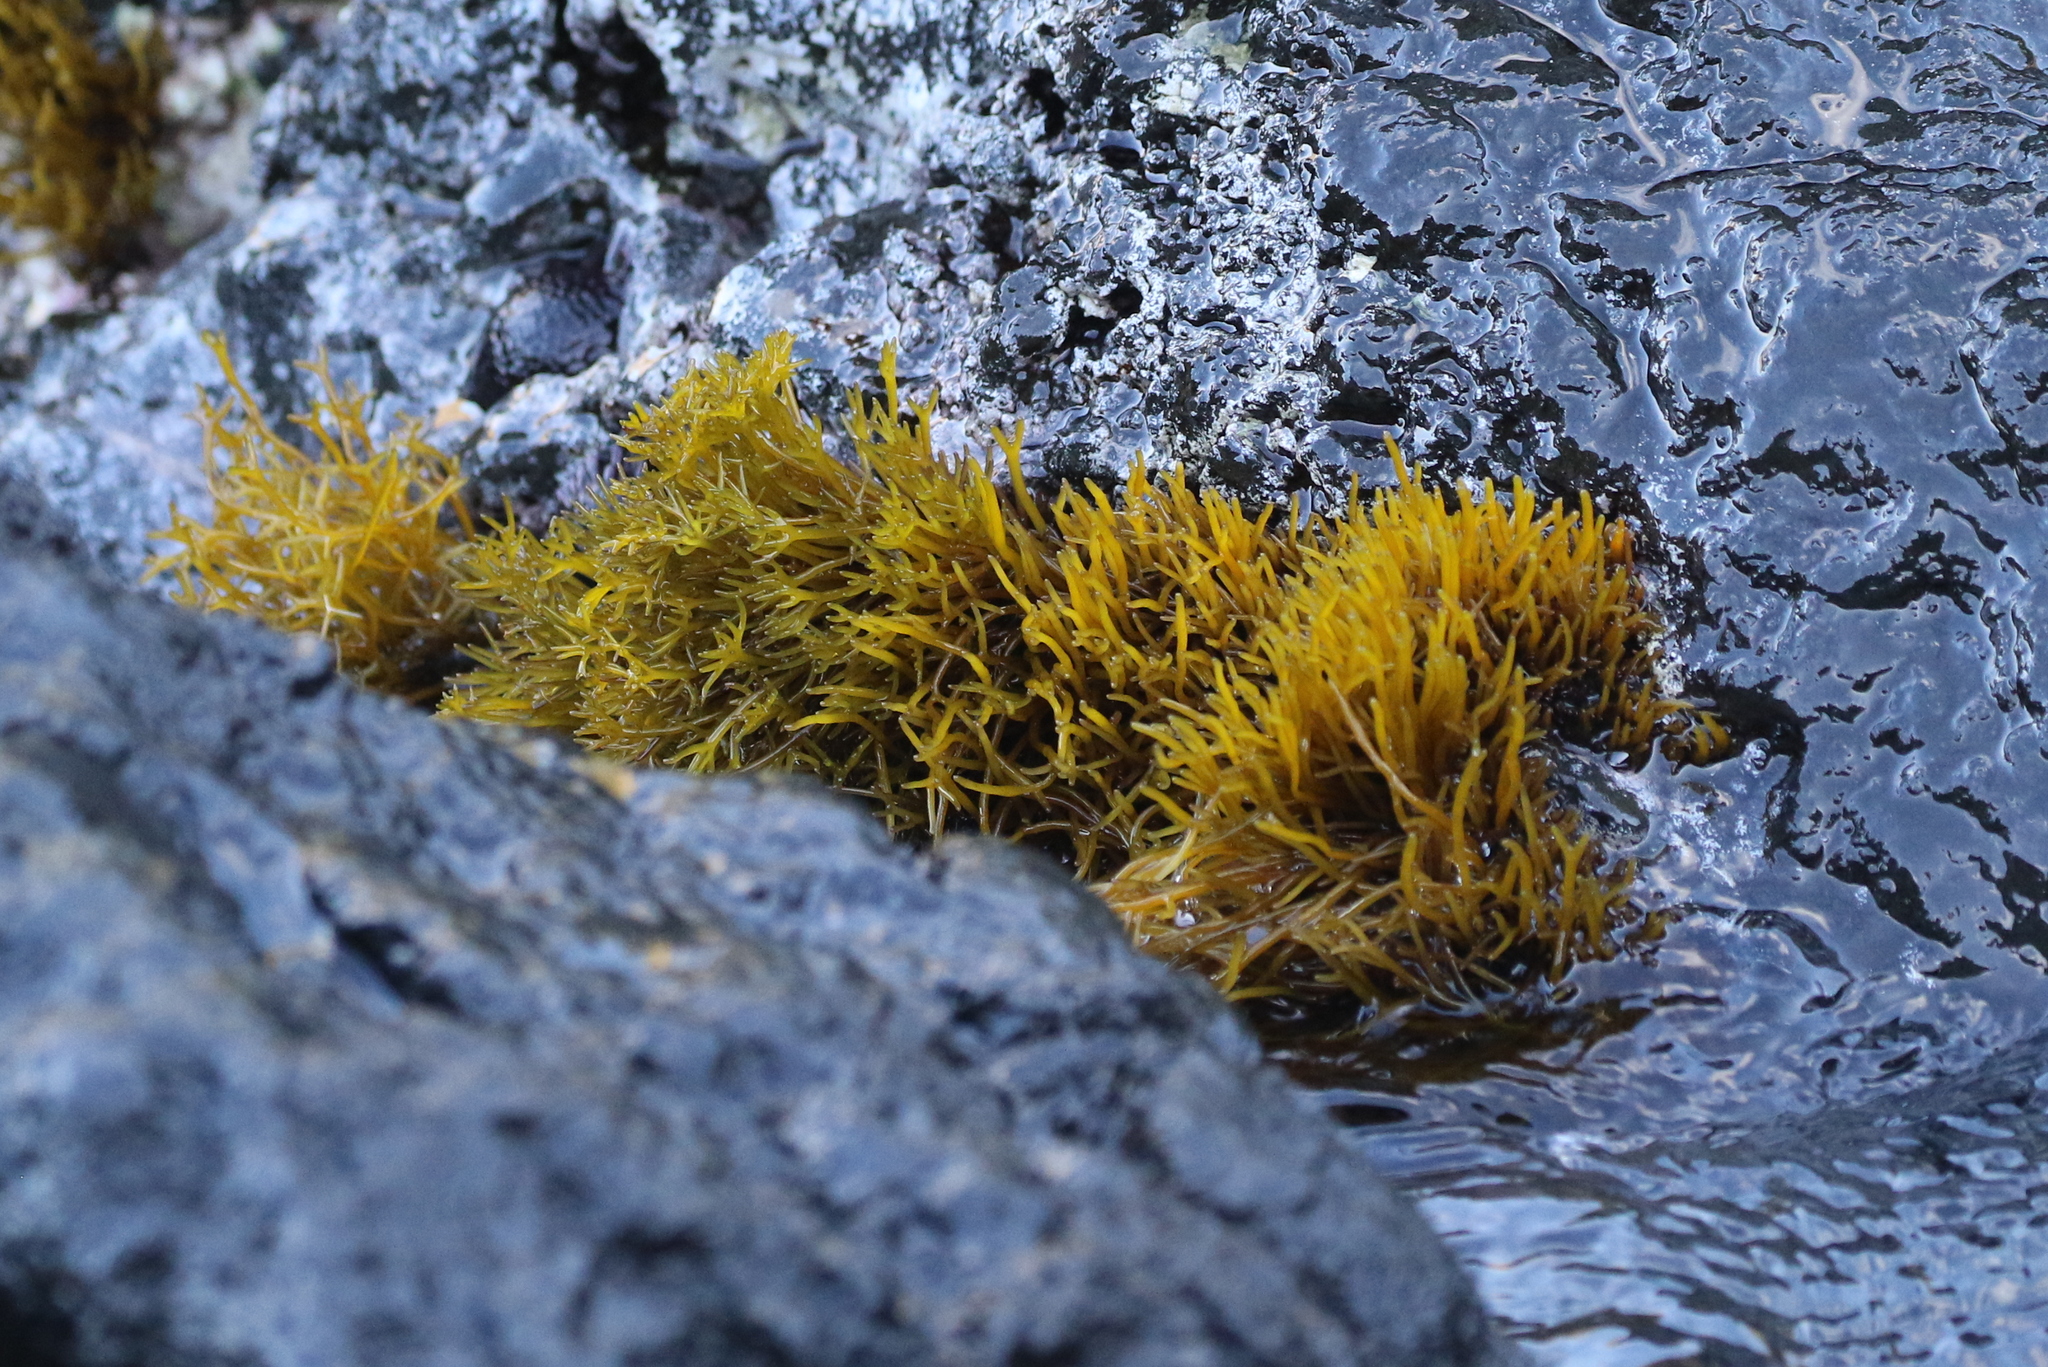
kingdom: Plantae
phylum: Rhodophyta
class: Florideophyceae
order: Gigartinales
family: Phyllophoraceae
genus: Gymnogongrus
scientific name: Gymnogongrus durvillei
